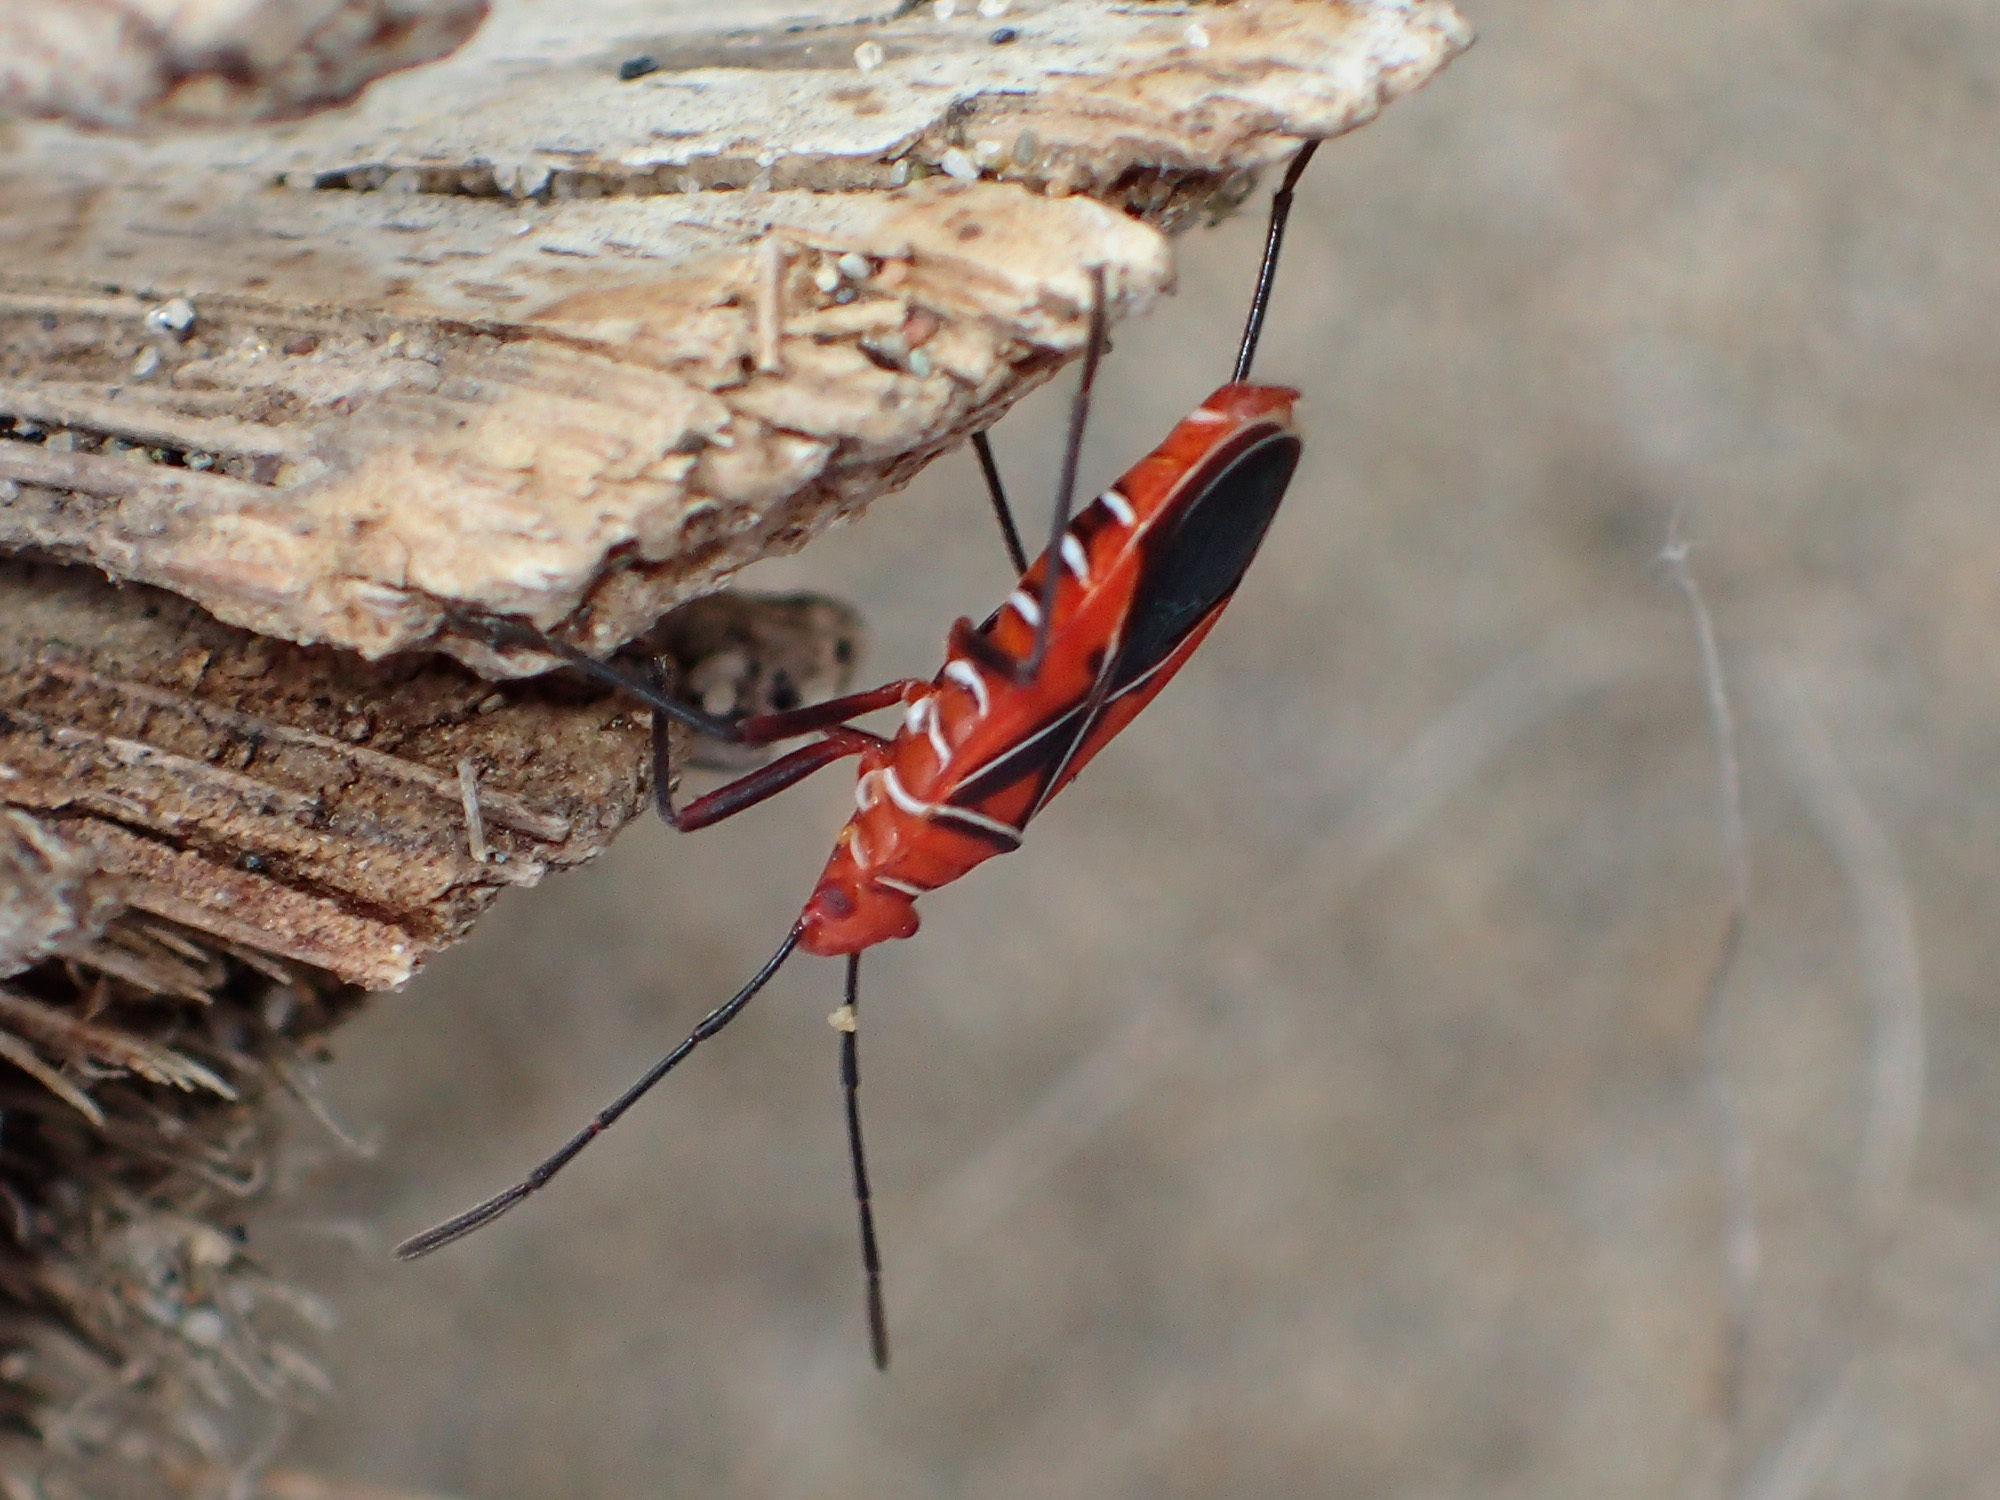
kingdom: Animalia
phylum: Arthropoda
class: Insecta
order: Hemiptera
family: Pyrrhocoridae
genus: Dysdercus
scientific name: Dysdercus andreae
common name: St. andrew's cotton stainer
